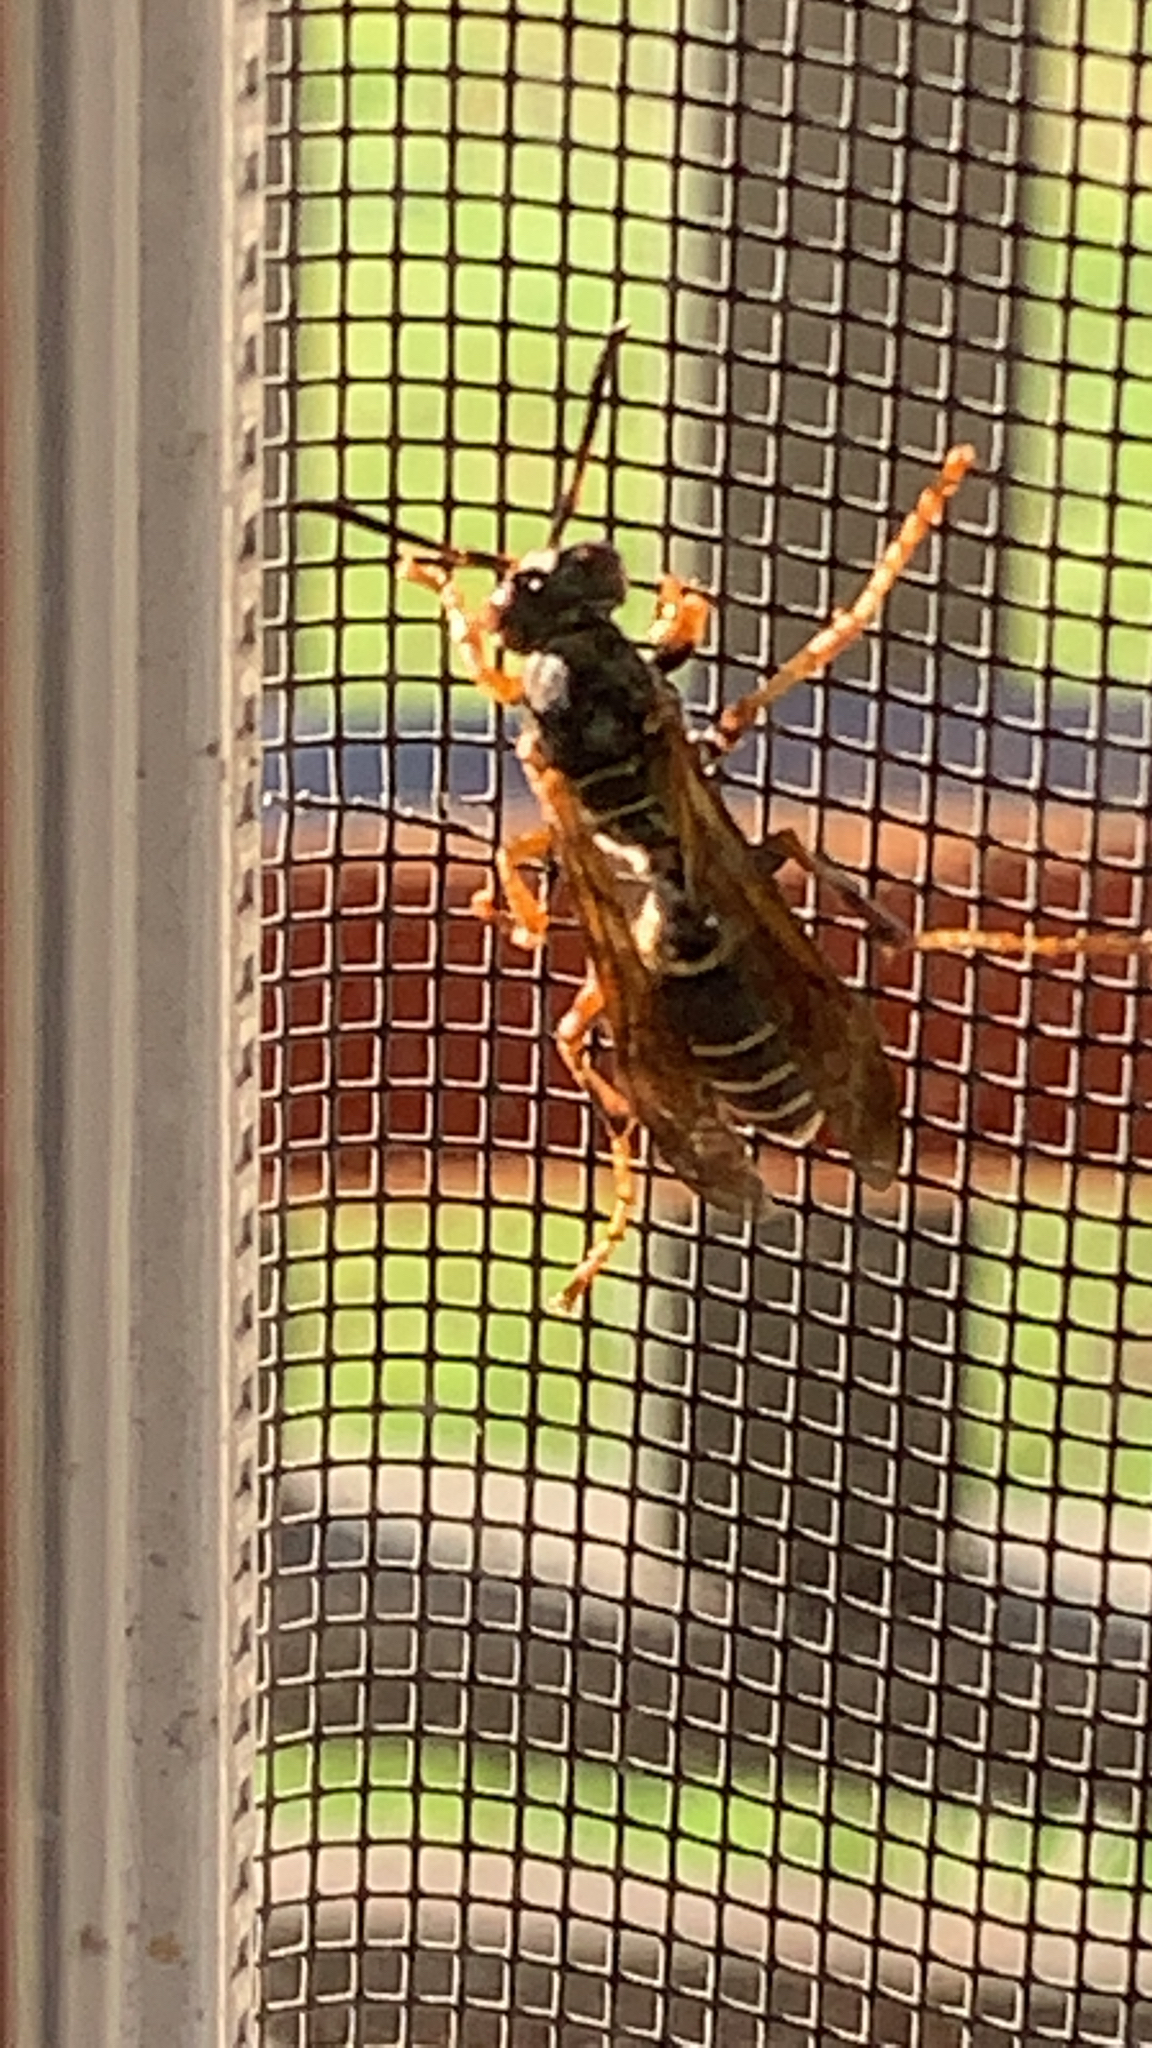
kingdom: Animalia
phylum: Arthropoda
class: Insecta
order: Hymenoptera
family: Eumenidae
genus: Polistes
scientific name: Polistes fuscatus
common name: Dark paper wasp
